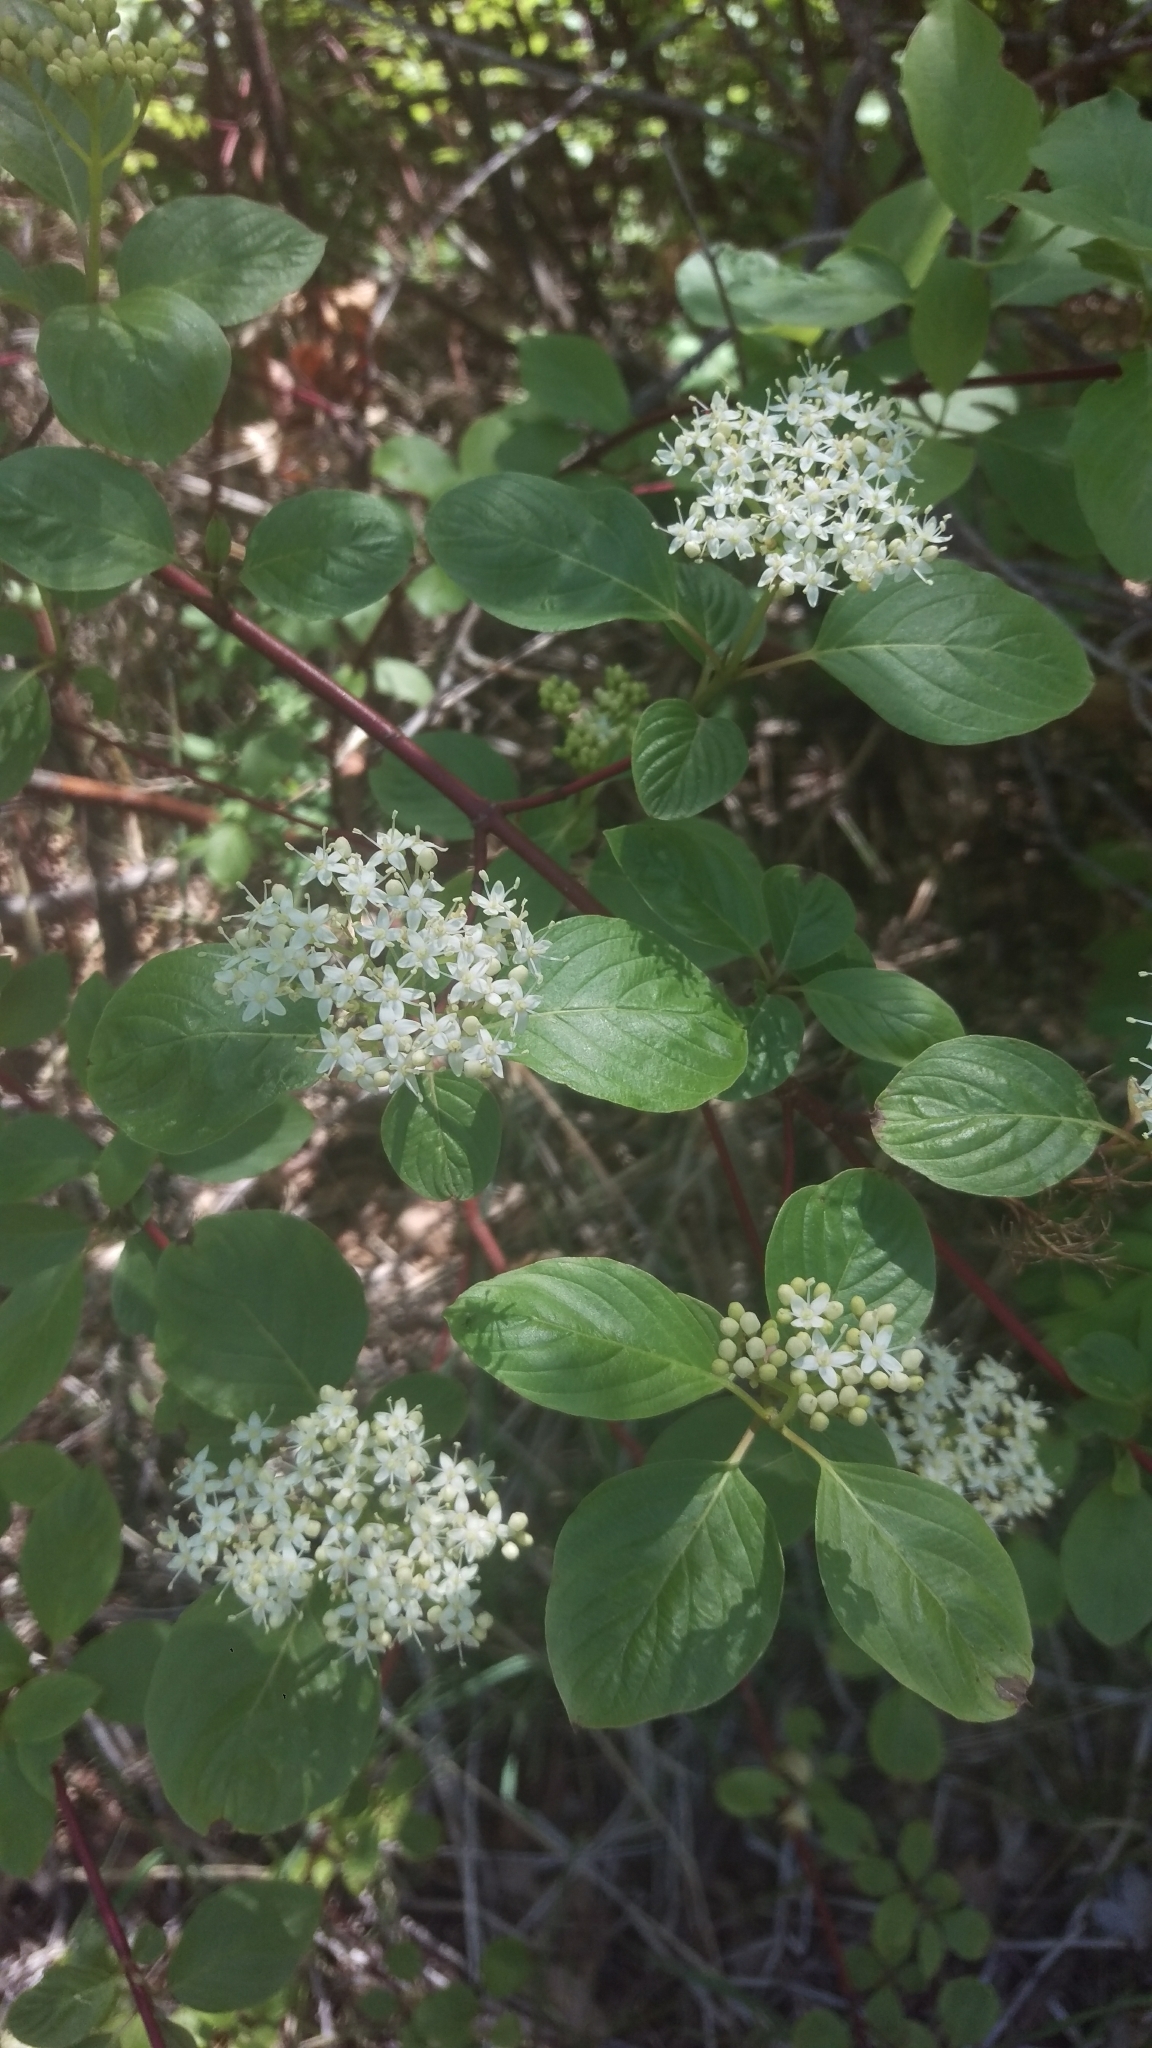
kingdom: Plantae
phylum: Tracheophyta
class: Magnoliopsida
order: Cornales
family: Cornaceae
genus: Cornus
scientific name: Cornus sericea
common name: Red-osier dogwood
